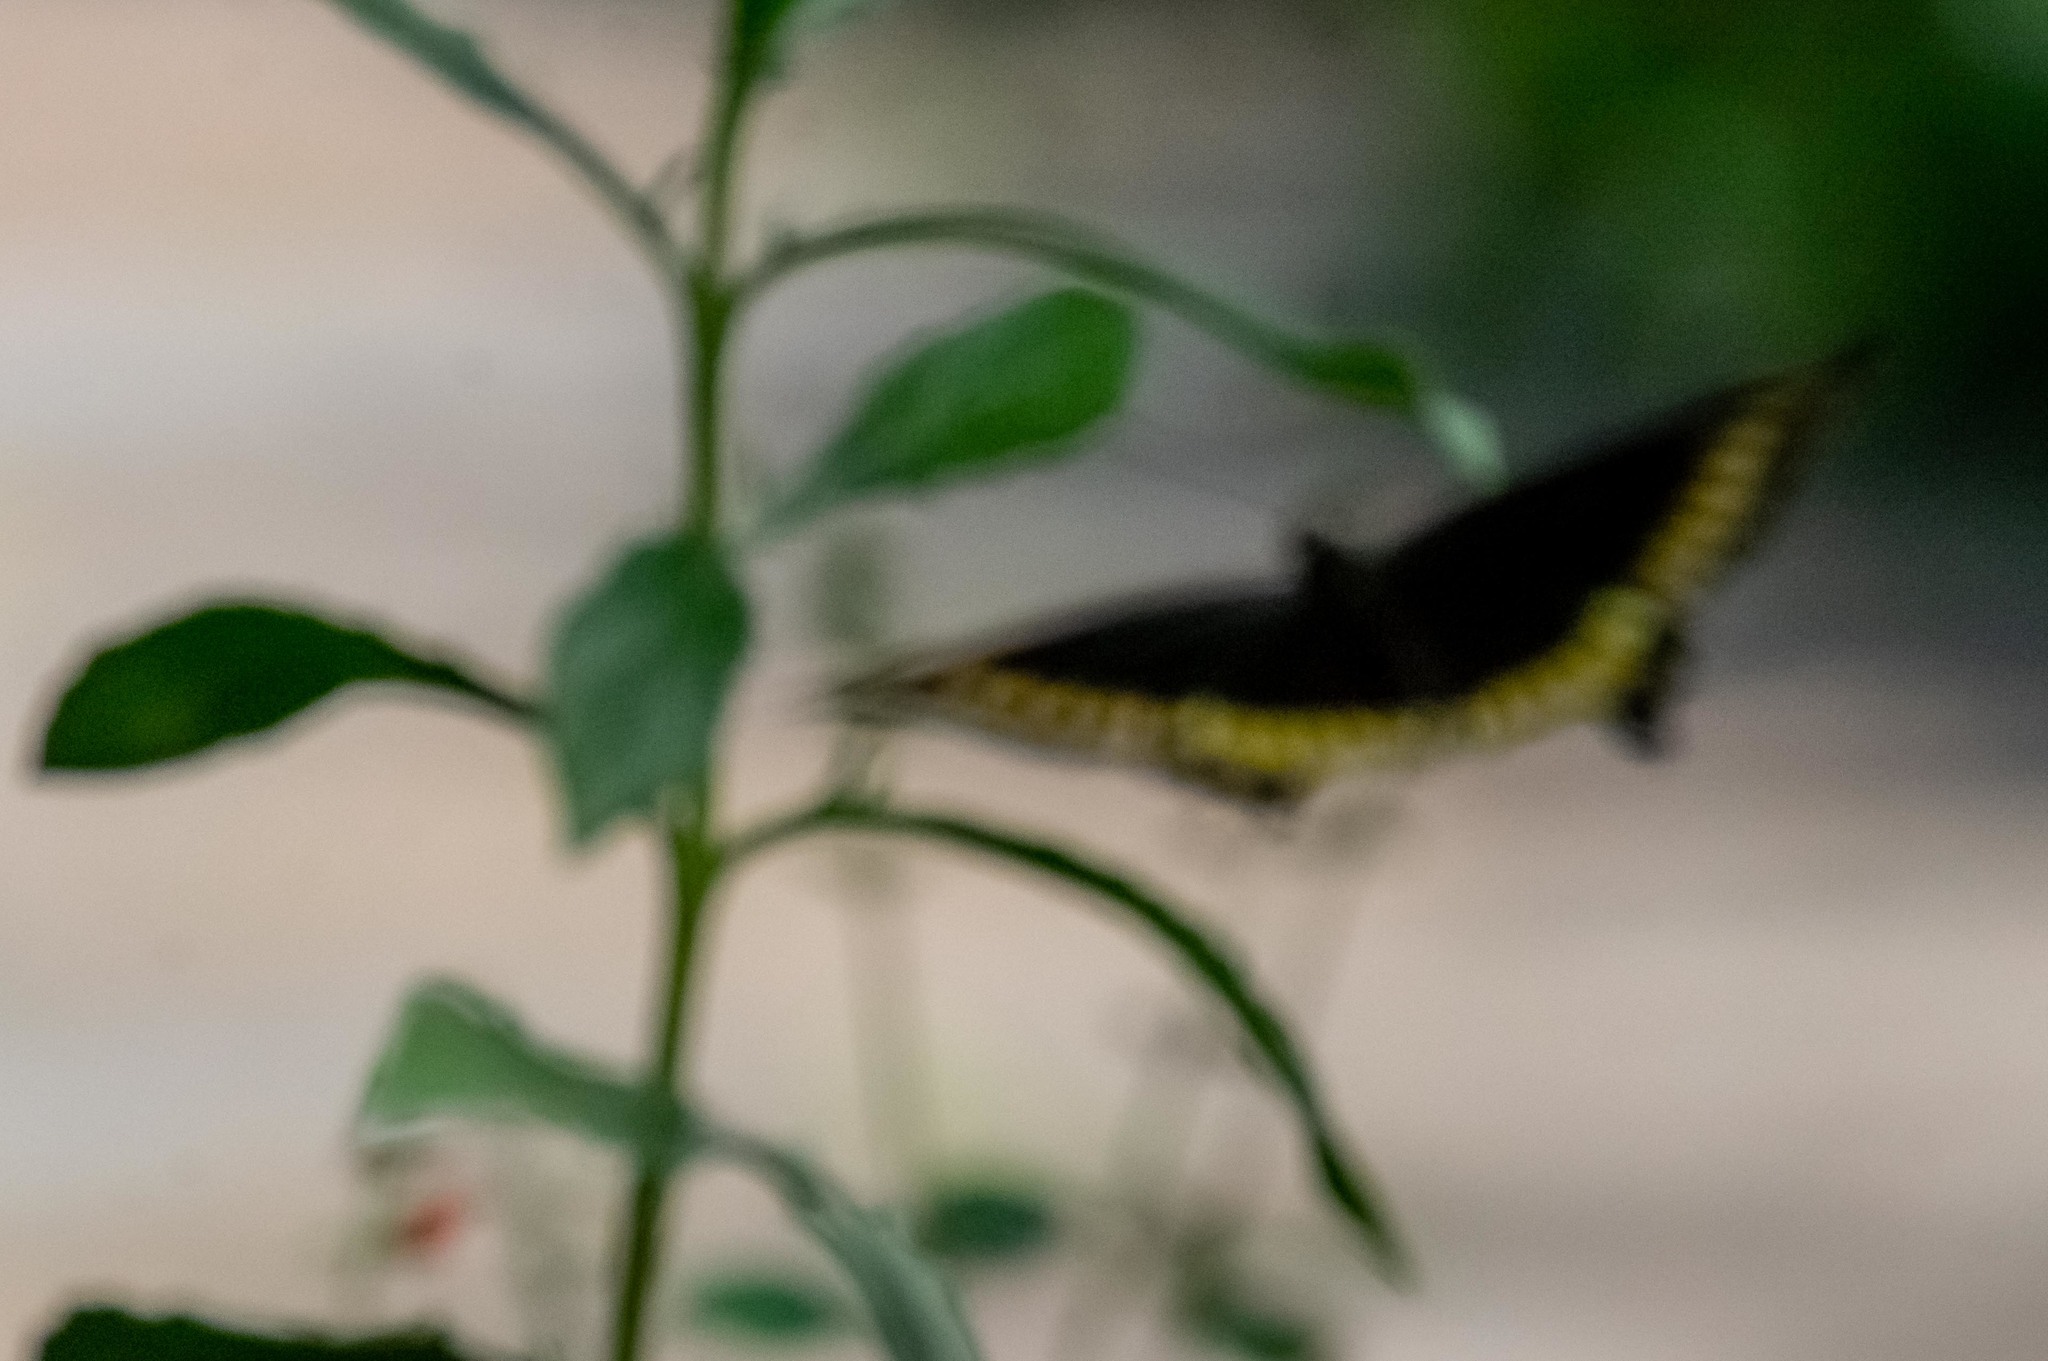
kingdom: Animalia
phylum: Arthropoda
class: Insecta
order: Lepidoptera
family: Papilionidae
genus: Battus
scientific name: Battus polydamas
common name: Polydamas swallowtail
